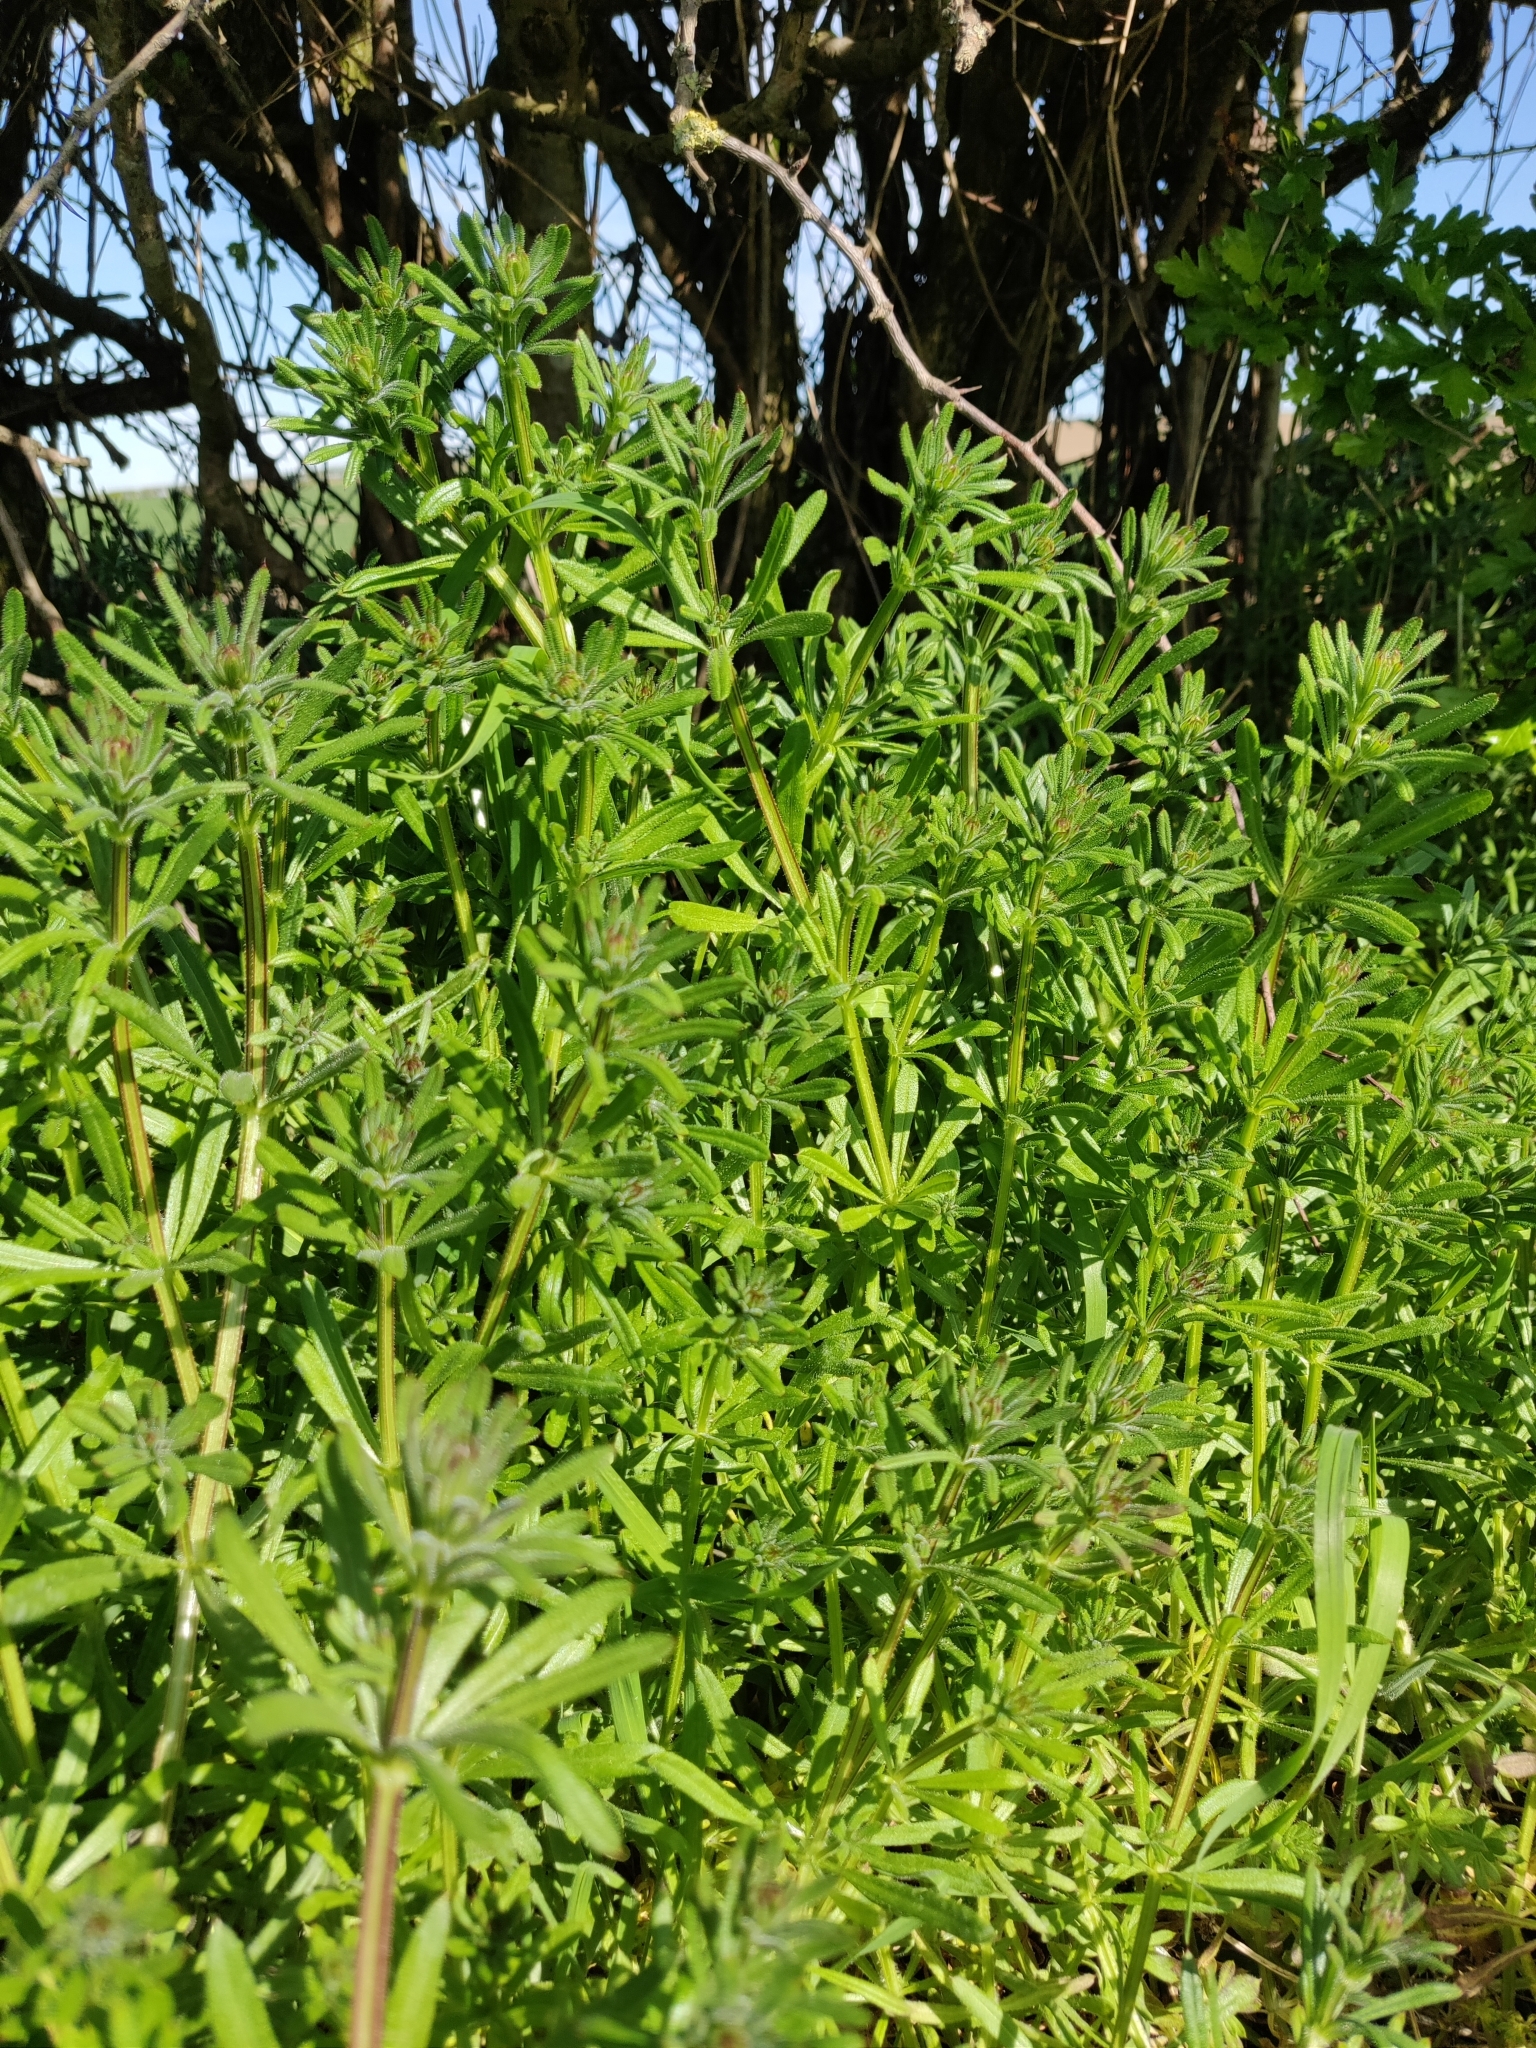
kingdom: Plantae
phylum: Tracheophyta
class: Magnoliopsida
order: Gentianales
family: Rubiaceae
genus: Galium
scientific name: Galium aparine
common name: Cleavers
